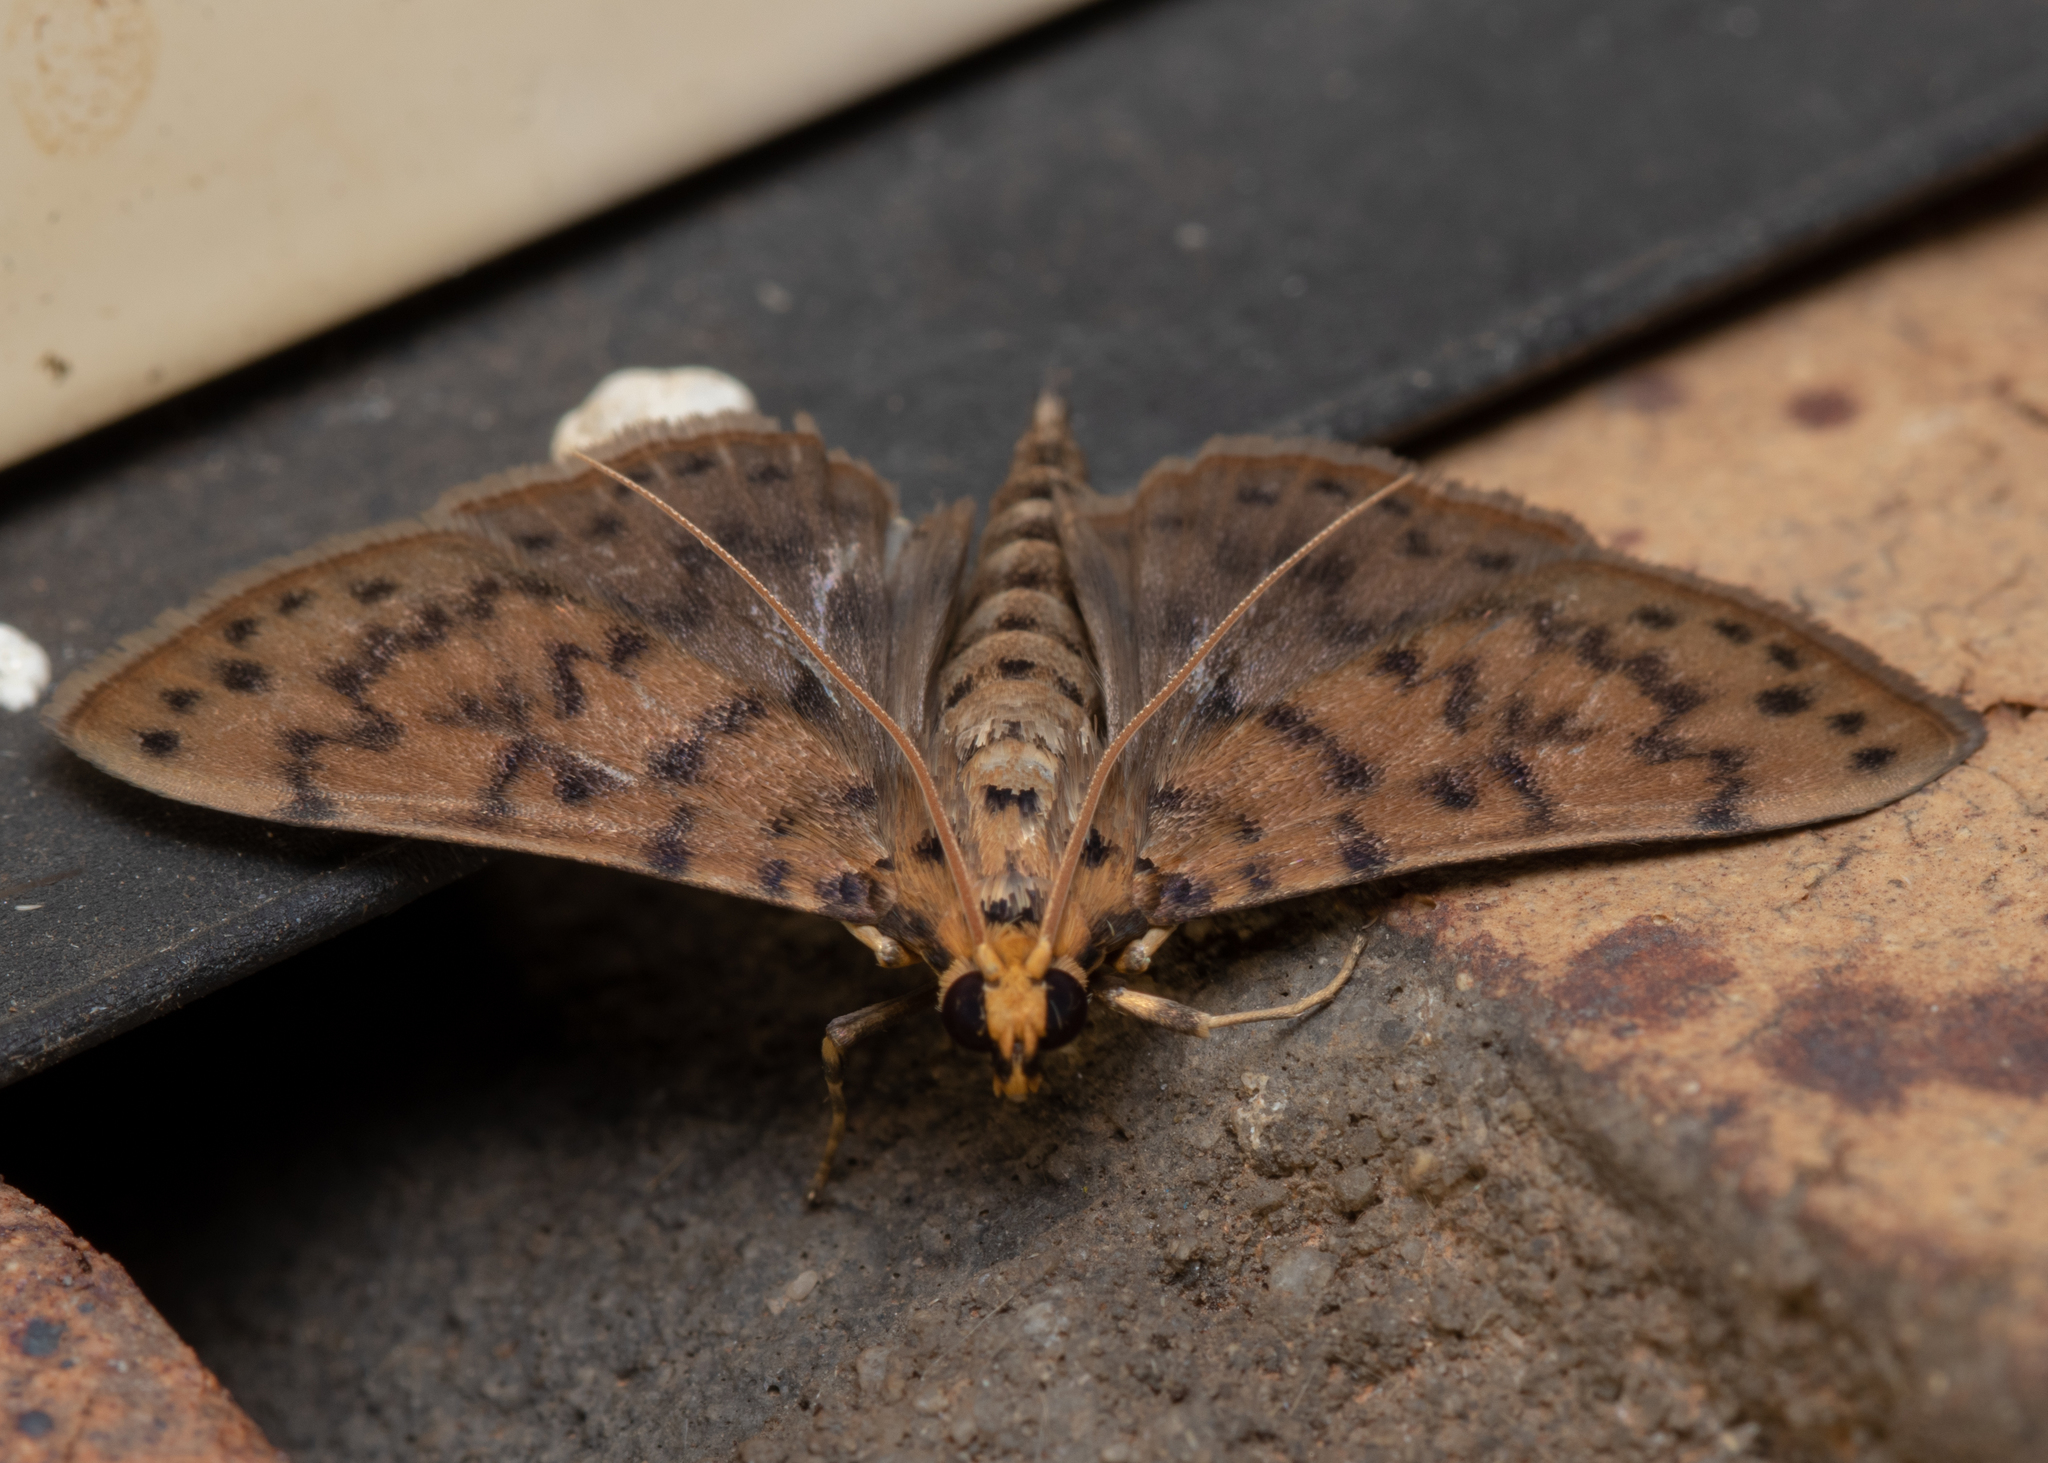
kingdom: Animalia
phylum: Arthropoda
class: Insecta
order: Lepidoptera
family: Crambidae
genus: Conogethes
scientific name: Conogethes pluto
